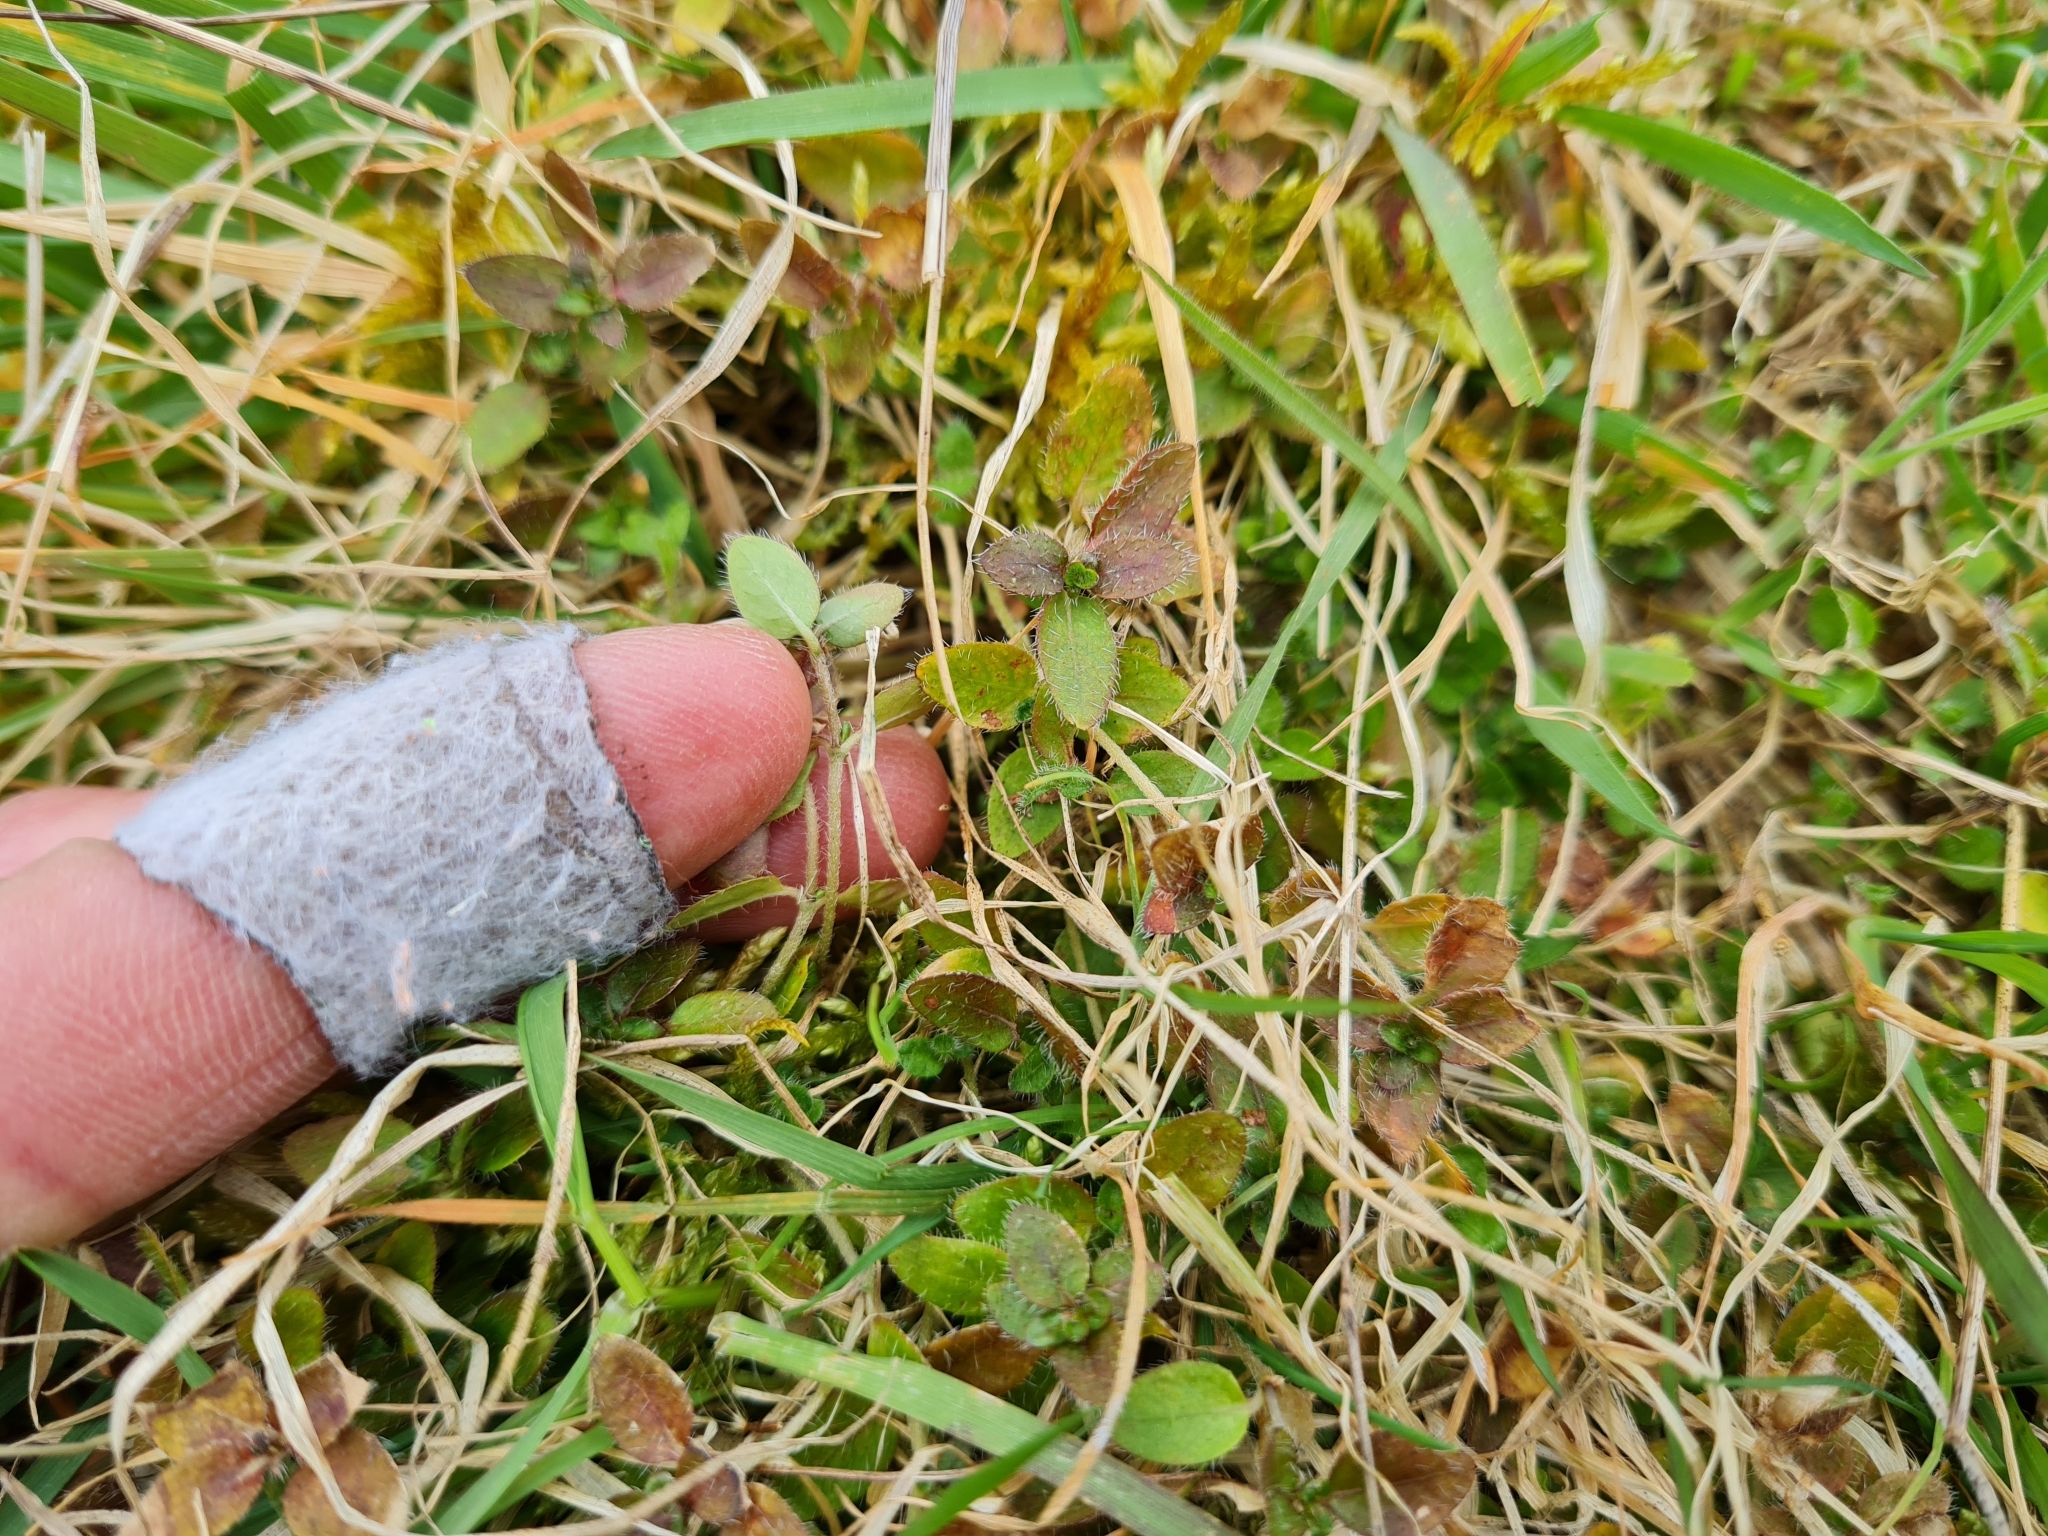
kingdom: Plantae
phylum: Tracheophyta
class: Magnoliopsida
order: Gentianales
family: Rubiaceae
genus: Leptostigma
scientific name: Leptostigma setulosum
